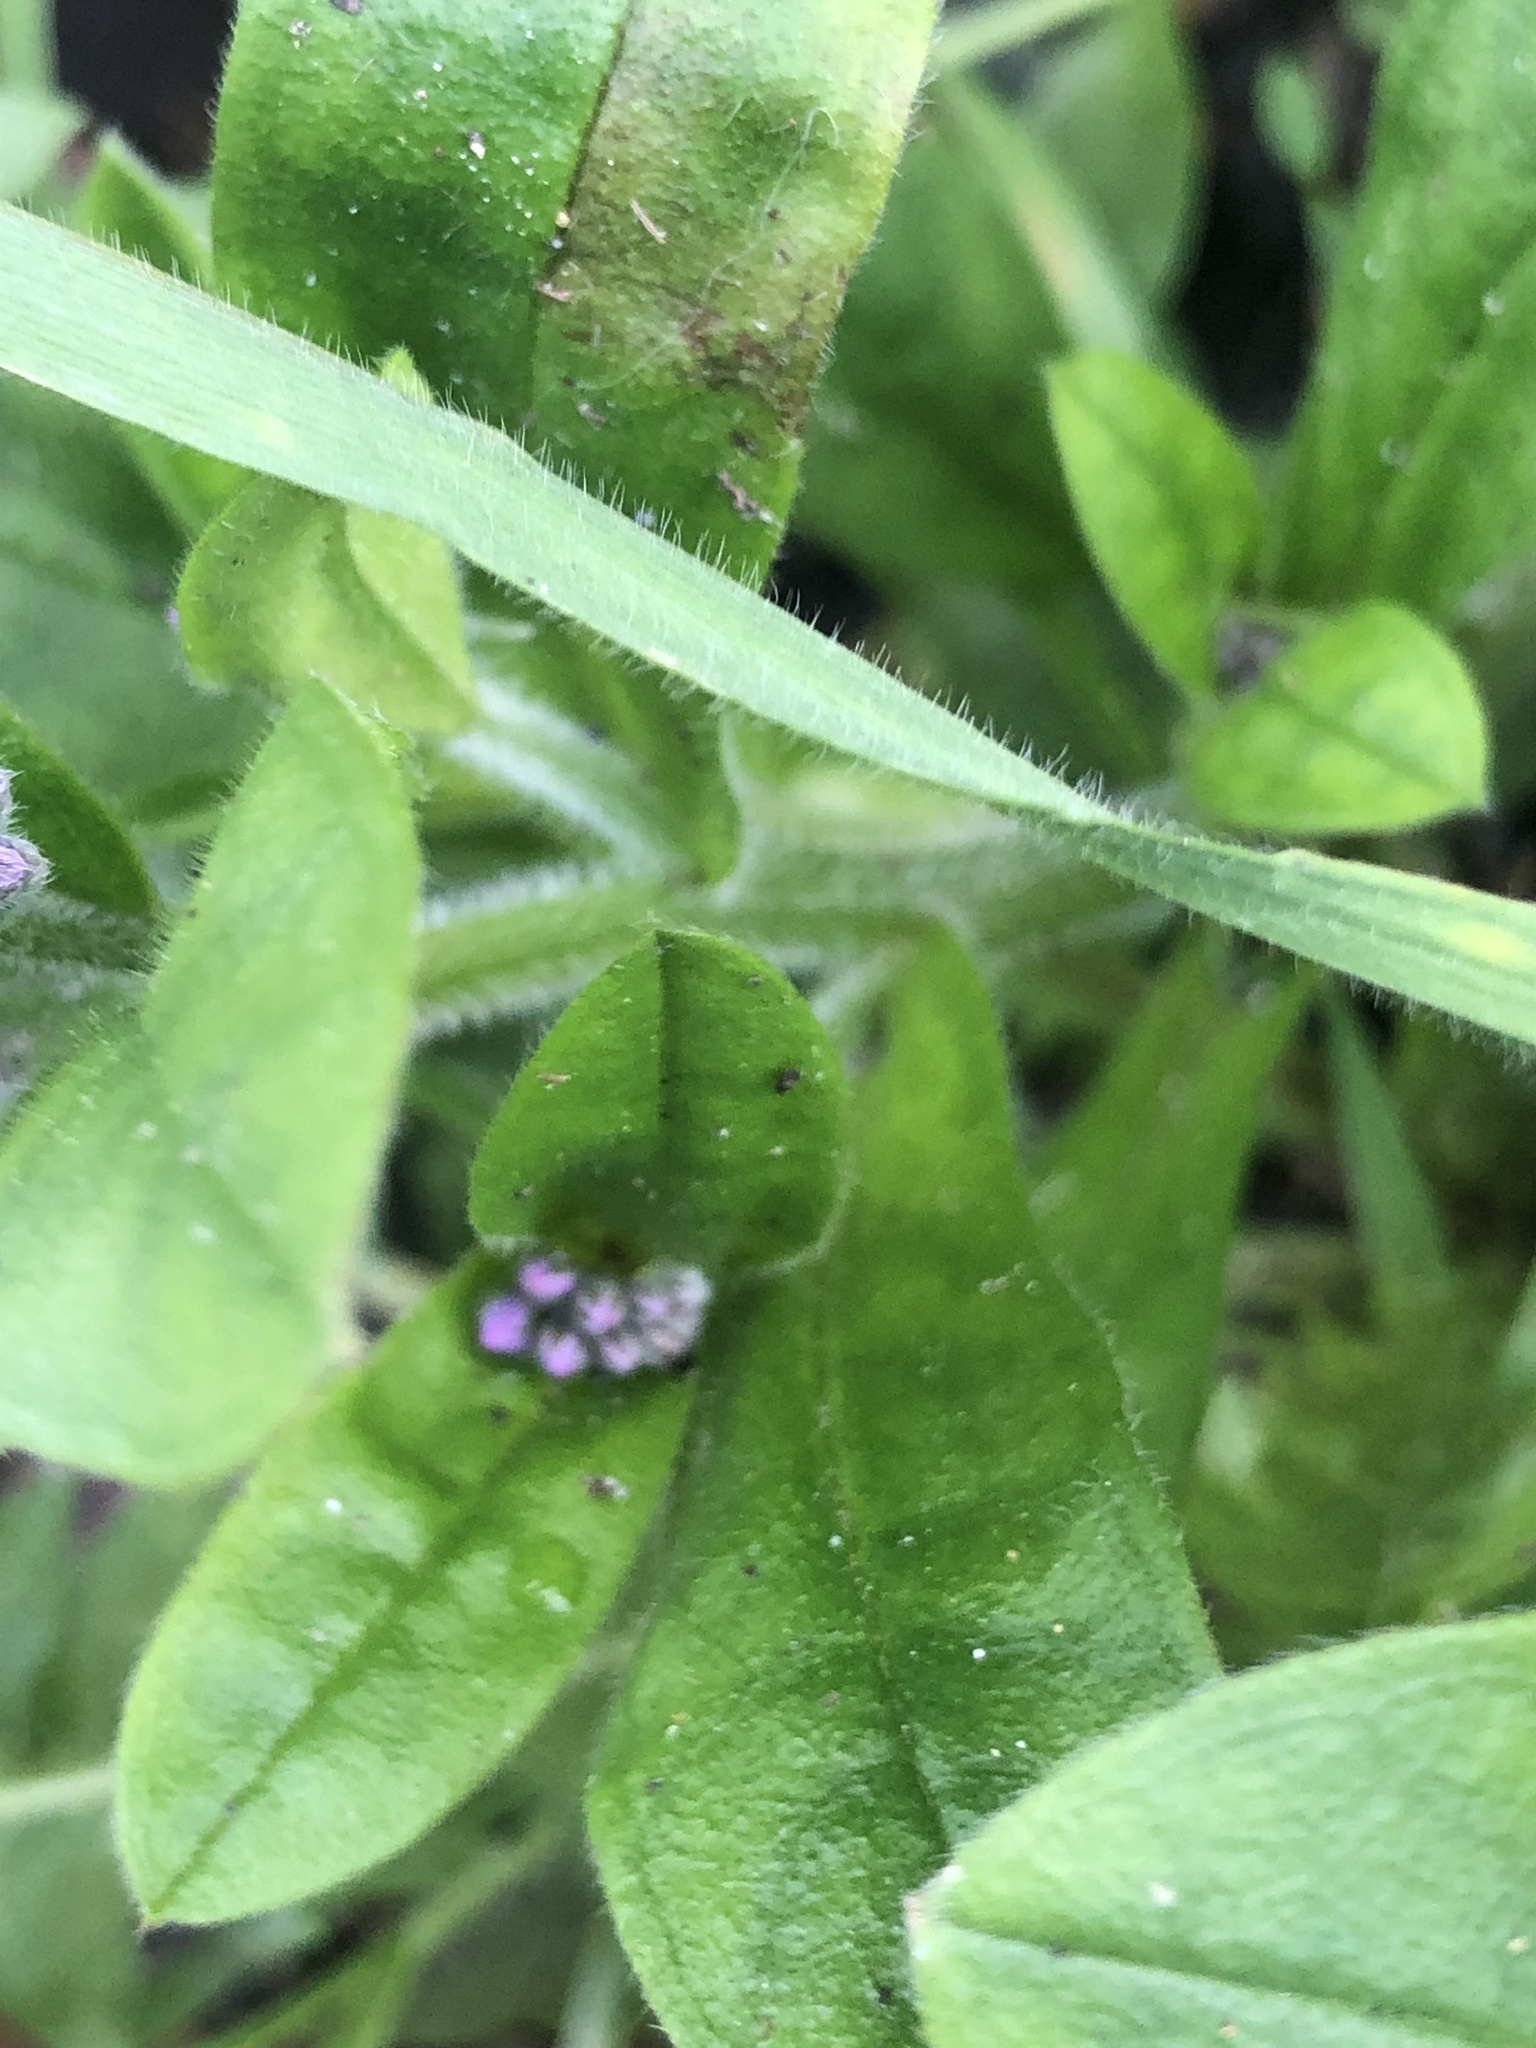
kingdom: Plantae
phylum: Tracheophyta
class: Magnoliopsida
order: Boraginales
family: Boraginaceae
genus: Myosotis
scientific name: Myosotis sylvatica
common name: Wood forget-me-not
